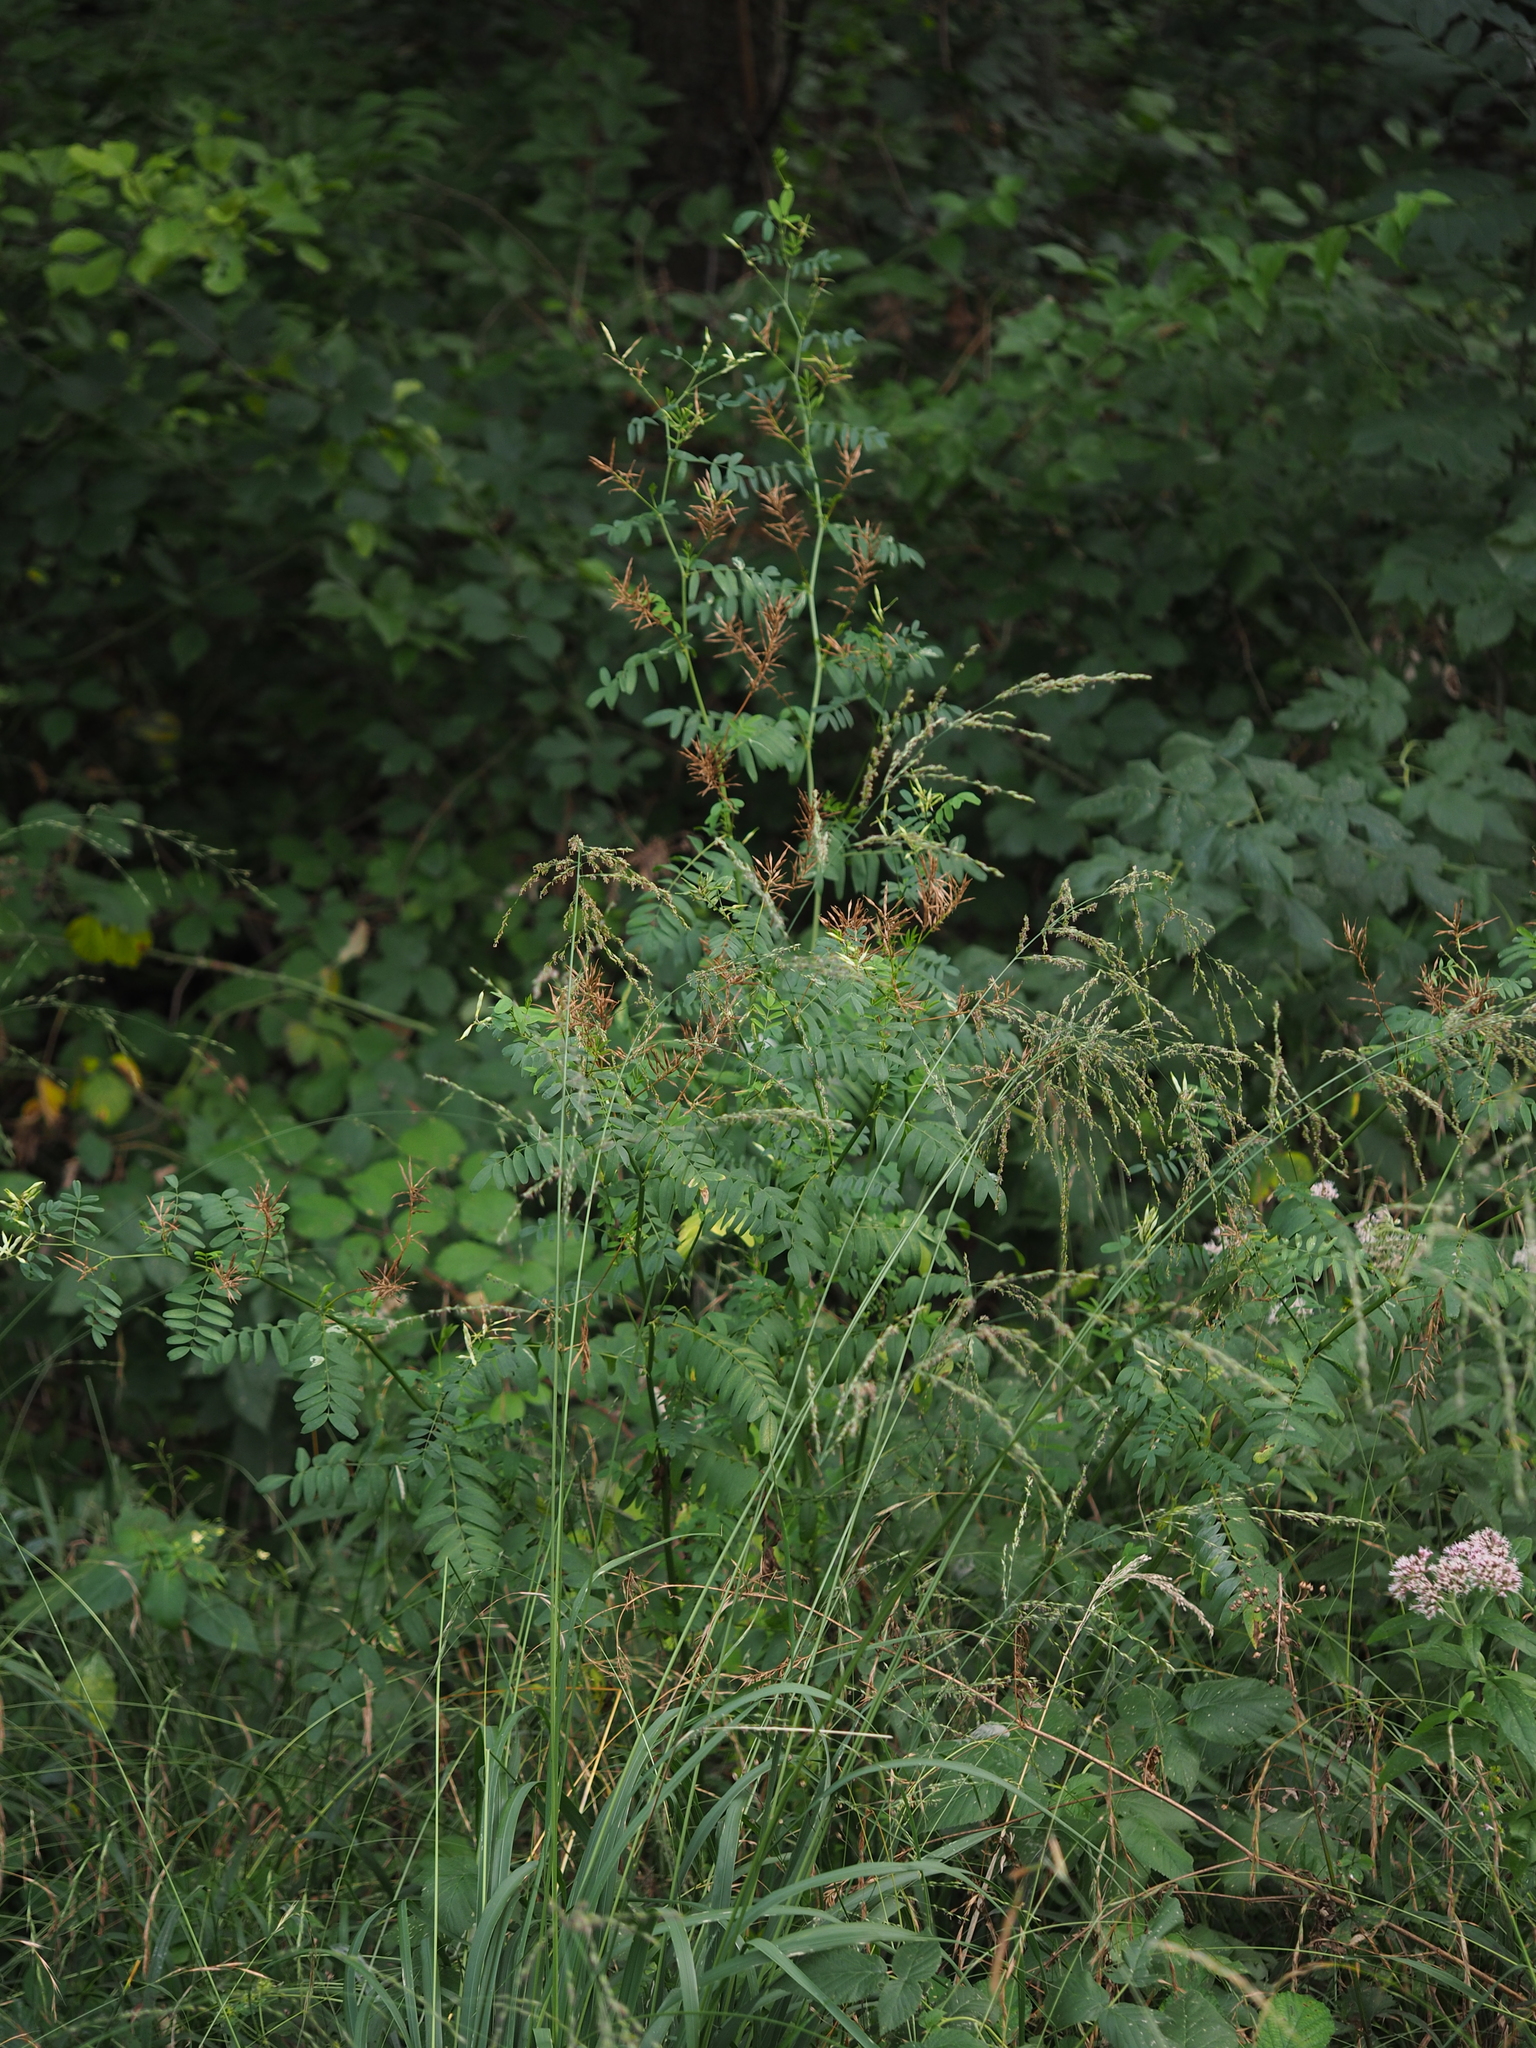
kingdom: Plantae
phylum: Tracheophyta
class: Magnoliopsida
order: Fabales
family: Fabaceae
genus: Galega
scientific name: Galega officinalis
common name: Goat's-rue
